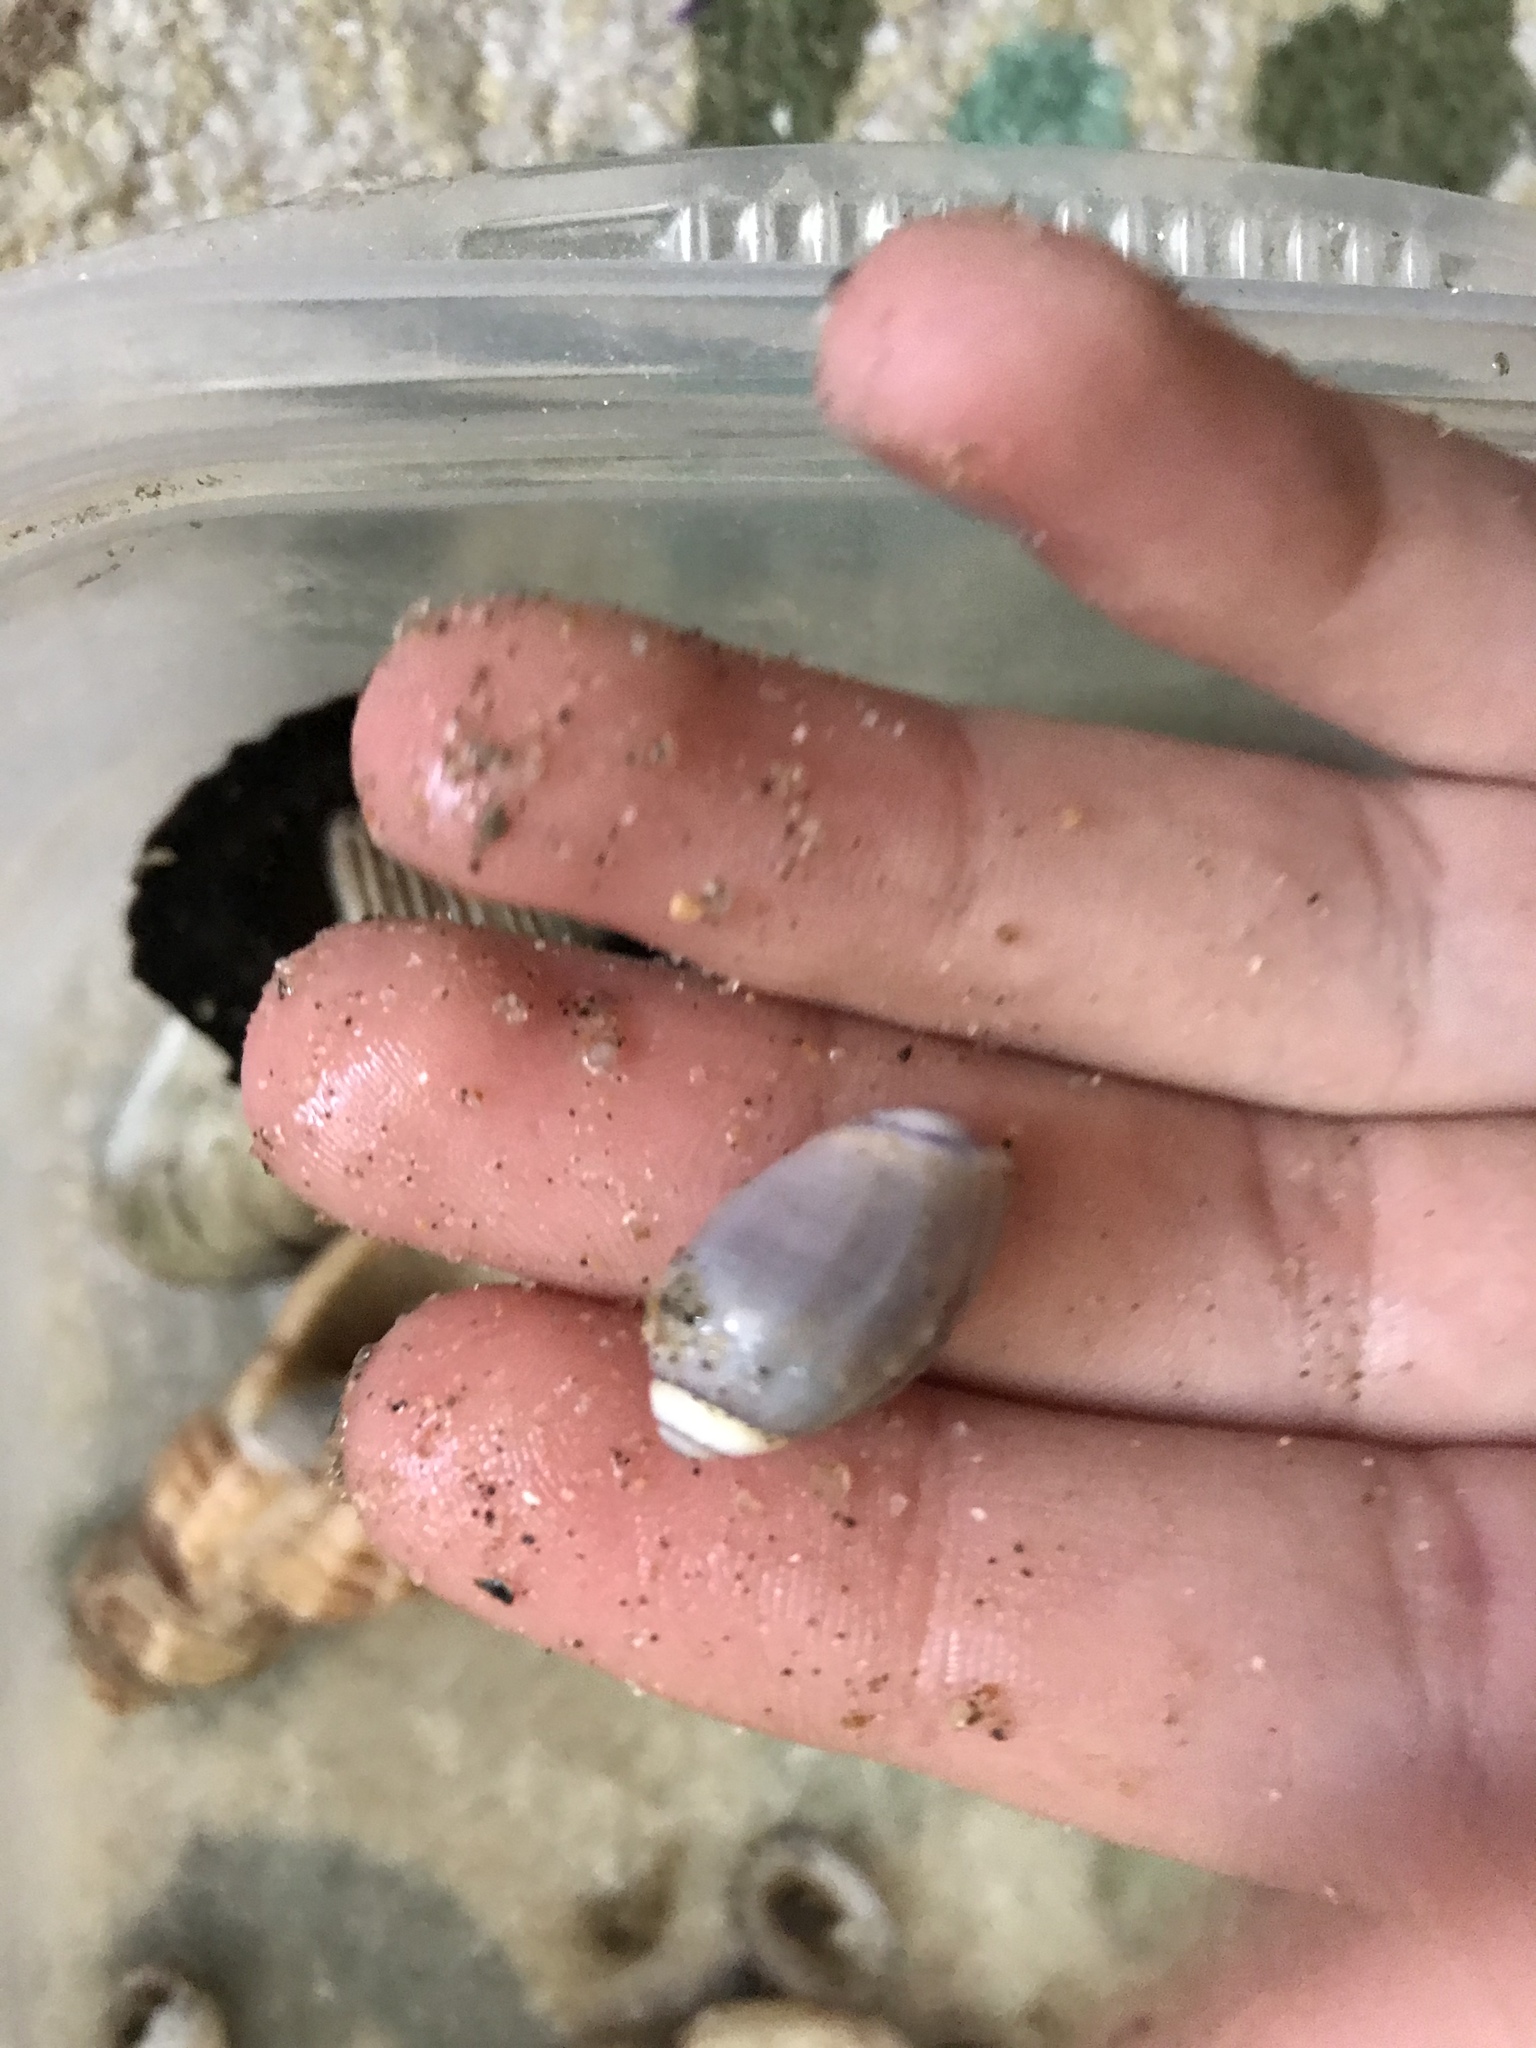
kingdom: Animalia
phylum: Mollusca
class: Gastropoda
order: Neogastropoda
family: Olividae
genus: Callianax
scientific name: Callianax biplicata
